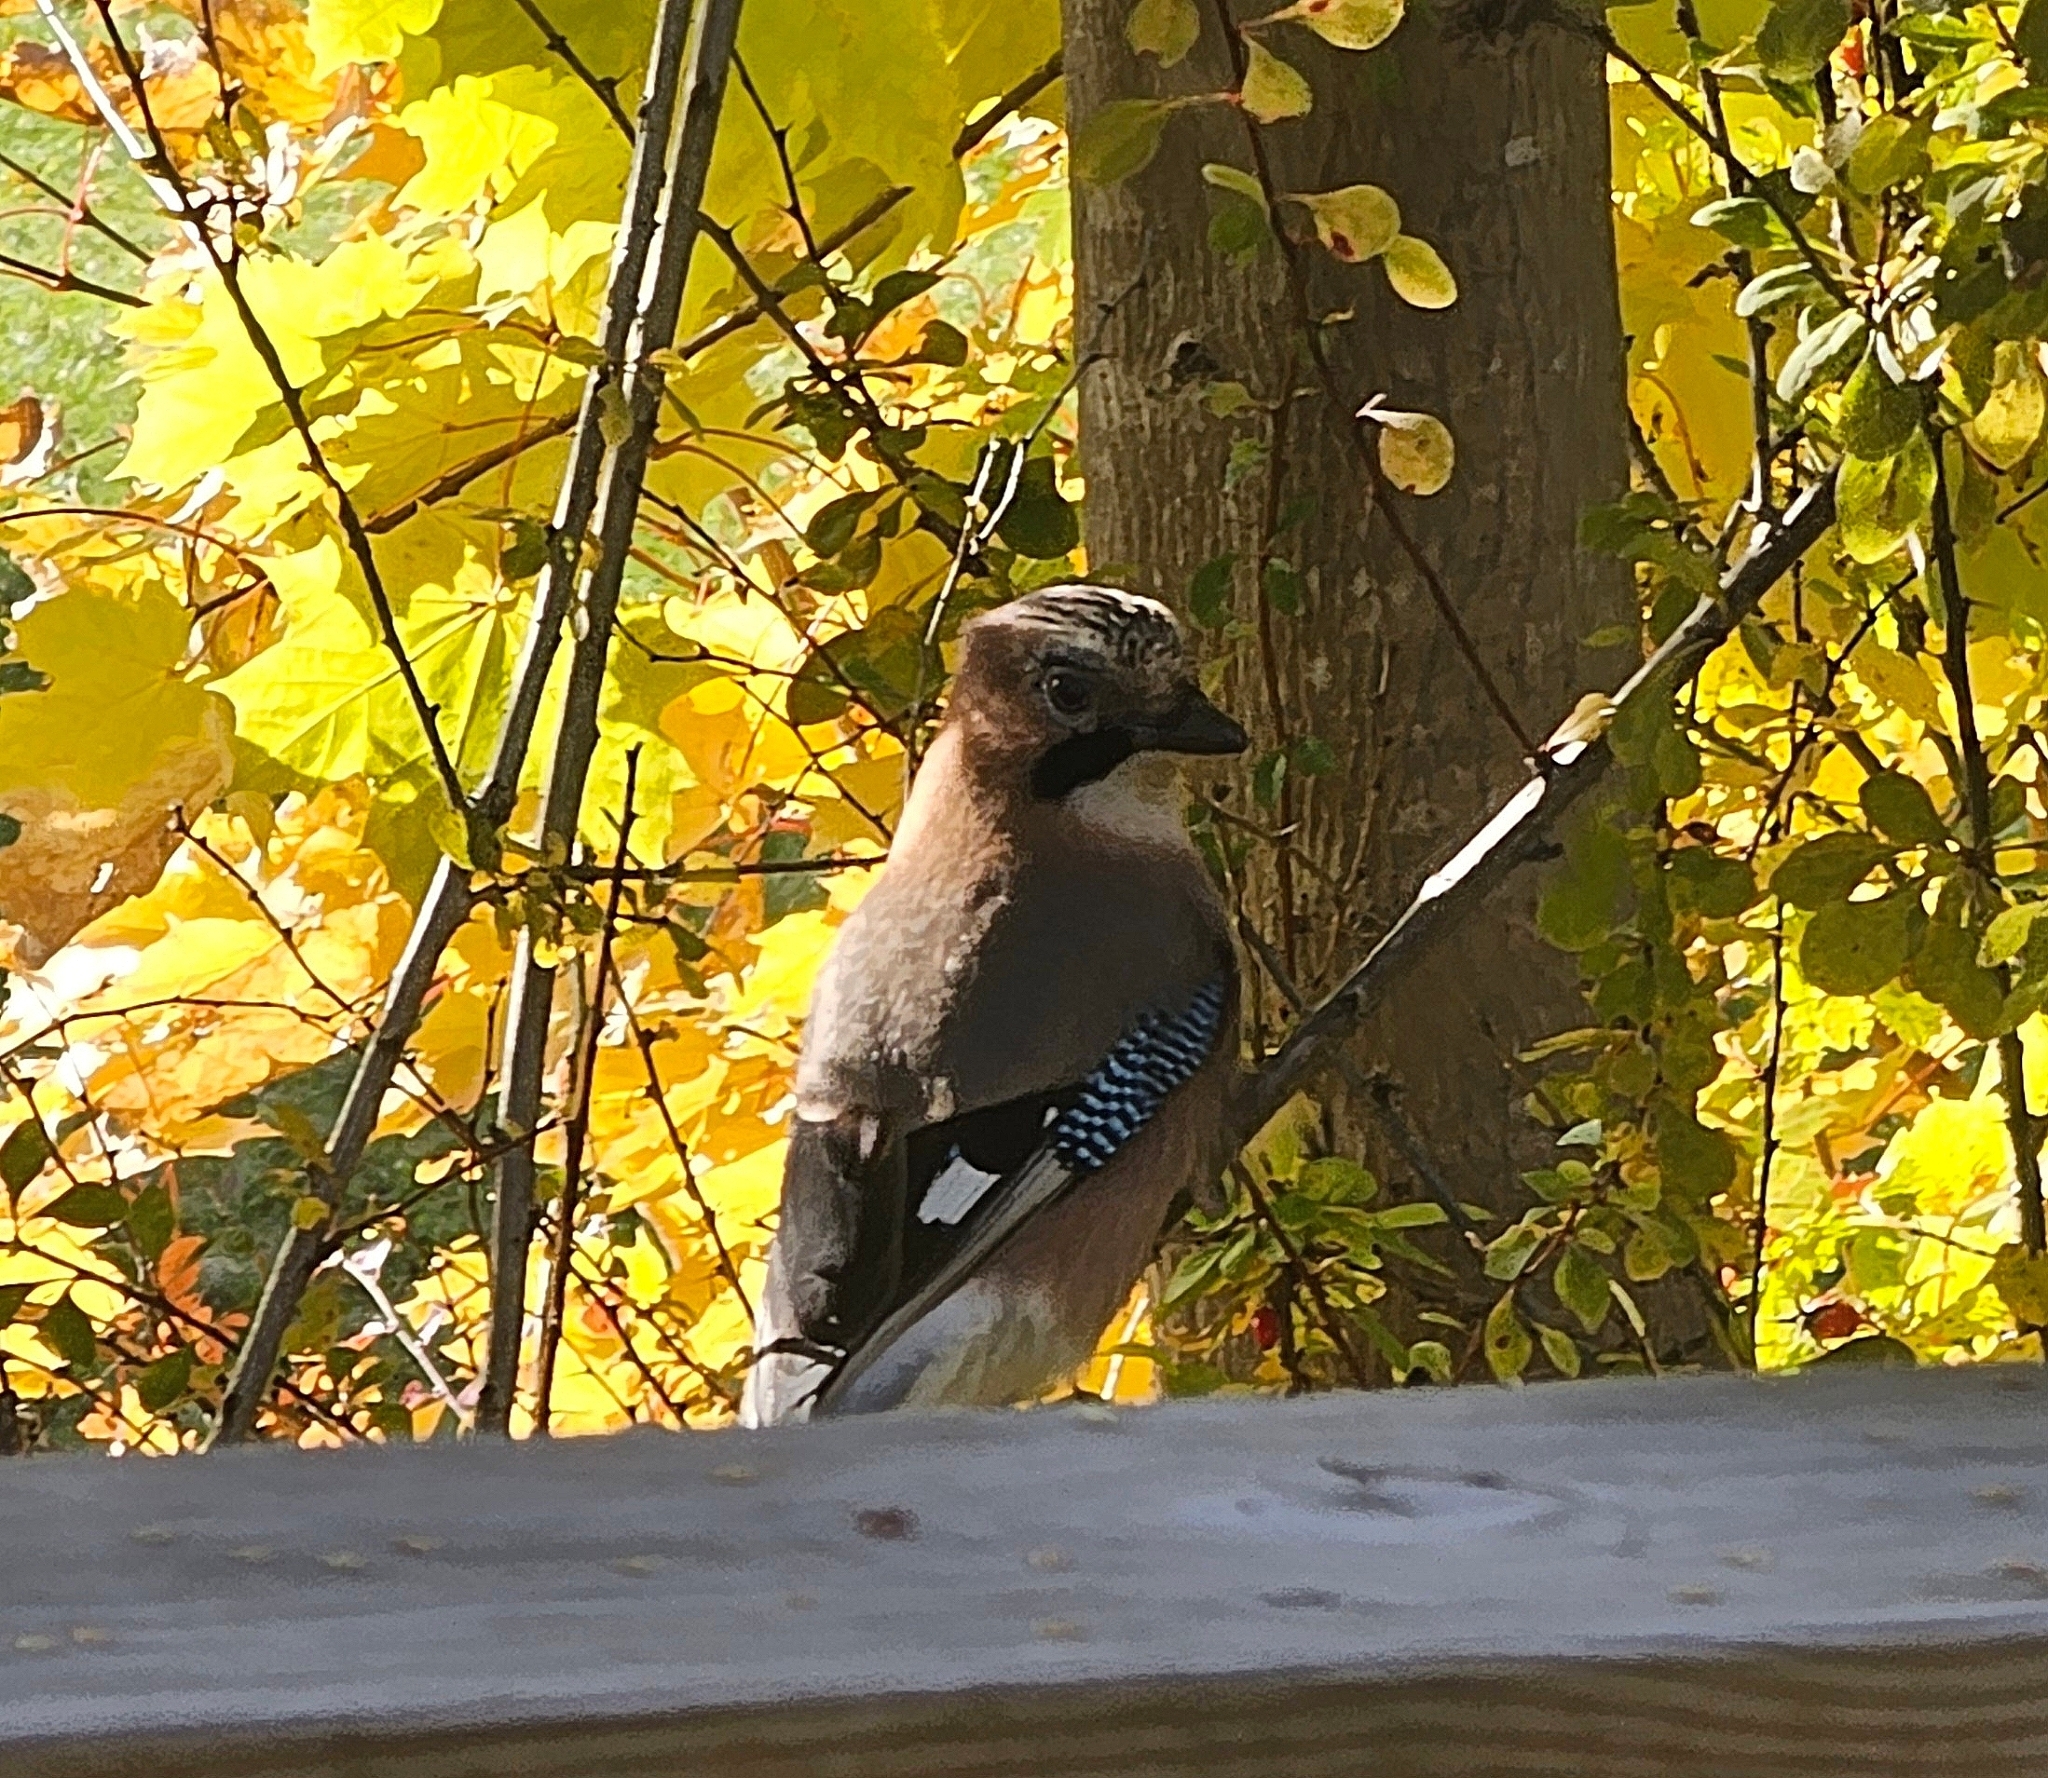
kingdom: Animalia
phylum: Chordata
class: Aves
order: Passeriformes
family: Corvidae
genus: Garrulus
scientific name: Garrulus glandarius
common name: Eurasian jay
